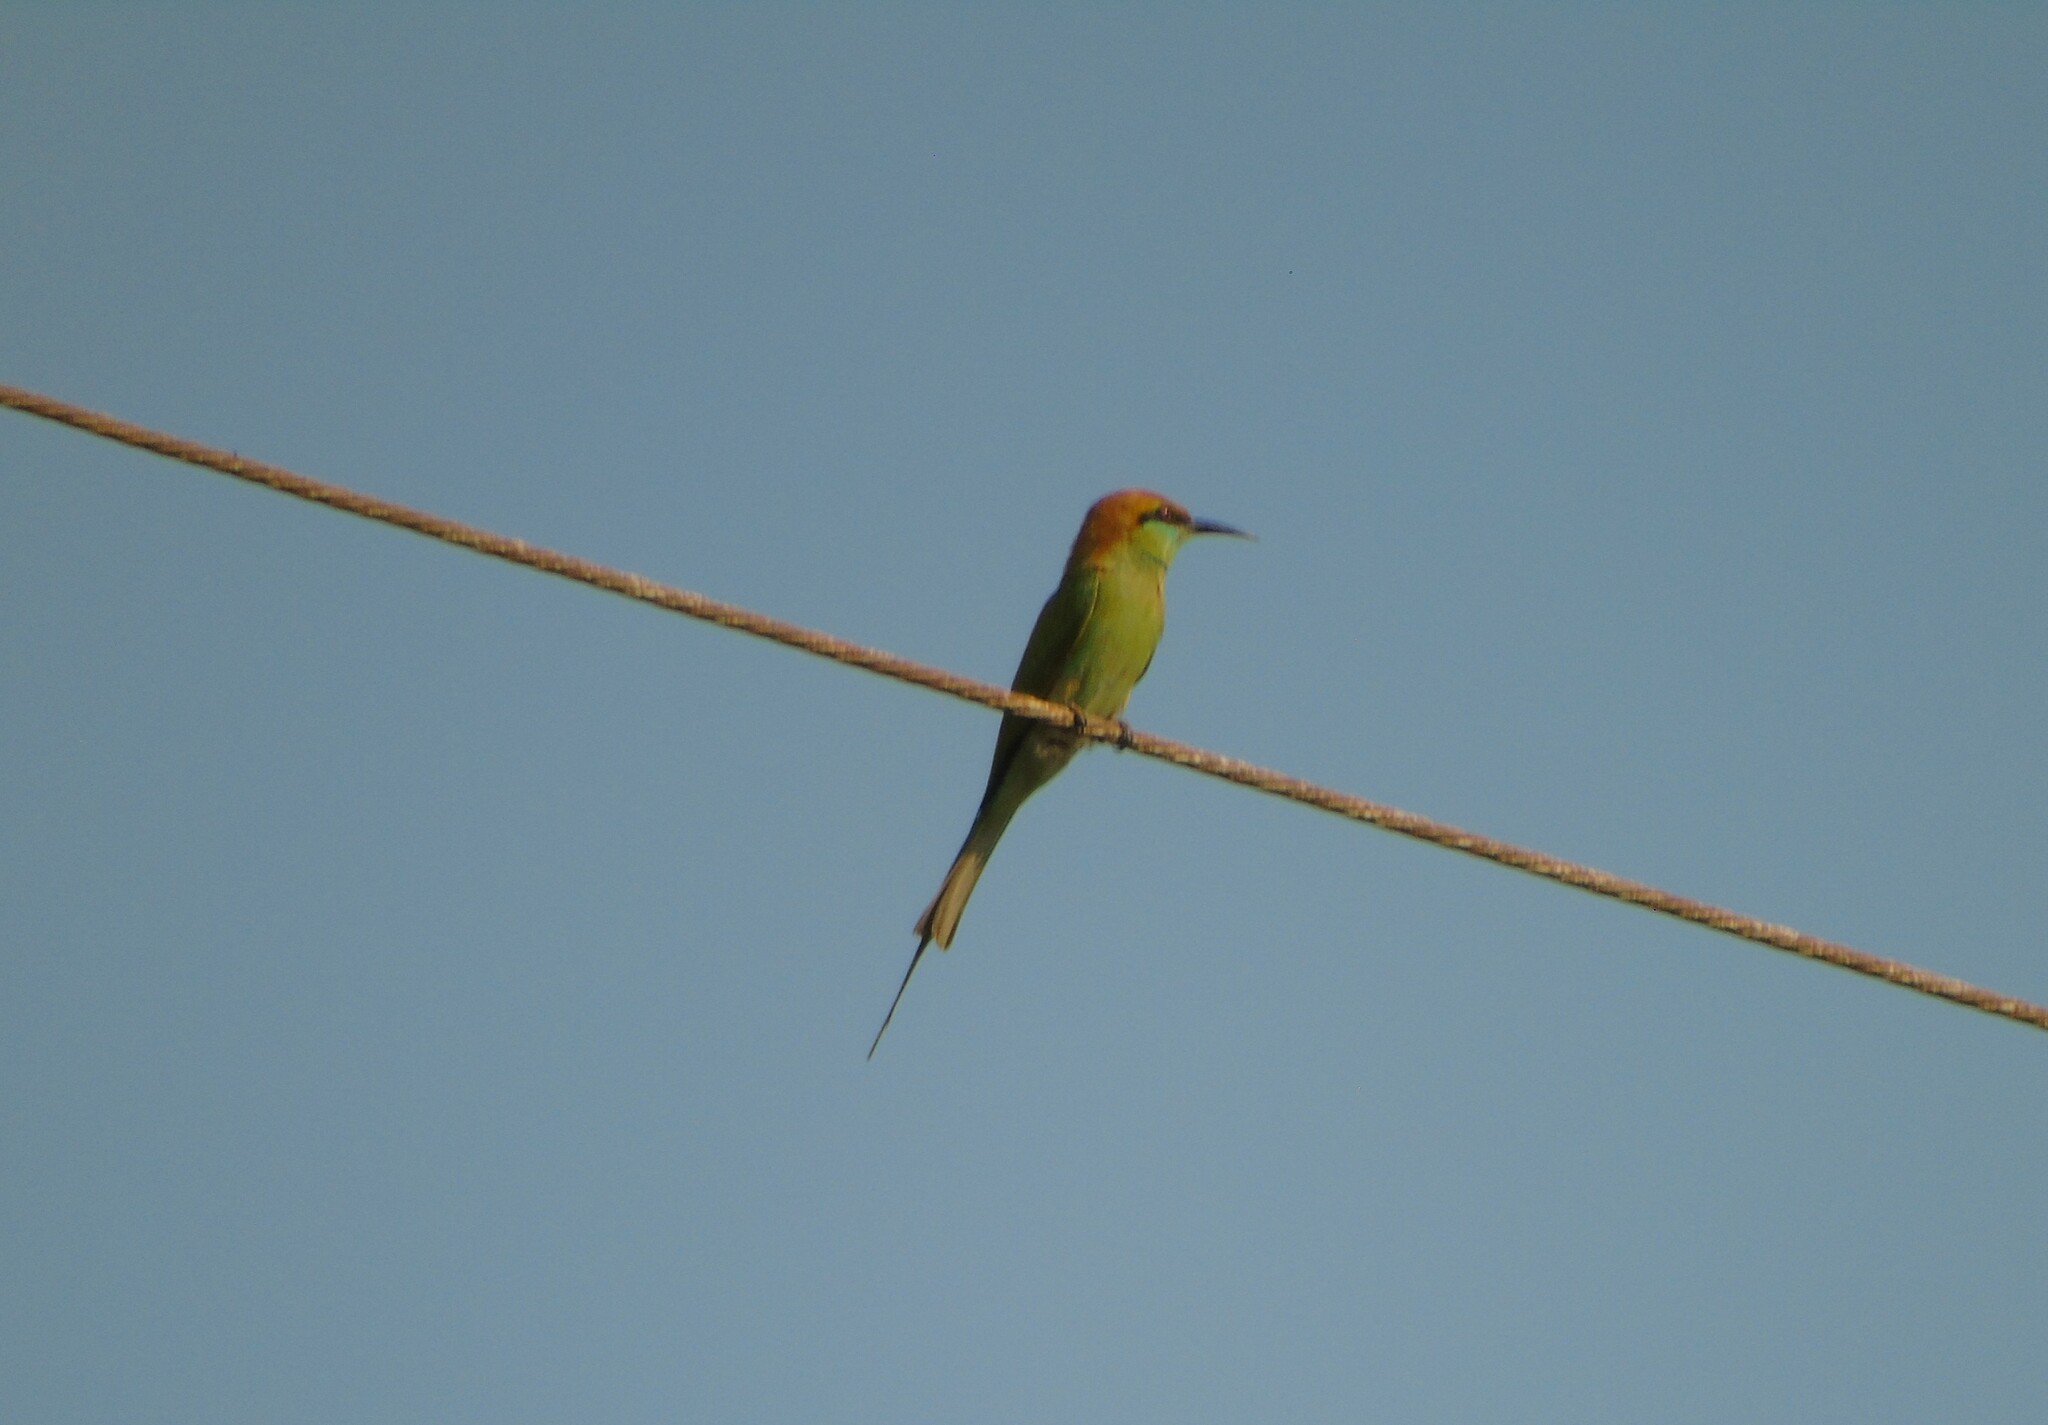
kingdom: Animalia
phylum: Chordata
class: Aves
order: Coraciiformes
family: Meropidae
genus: Merops
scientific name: Merops orientalis
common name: Green bee-eater
